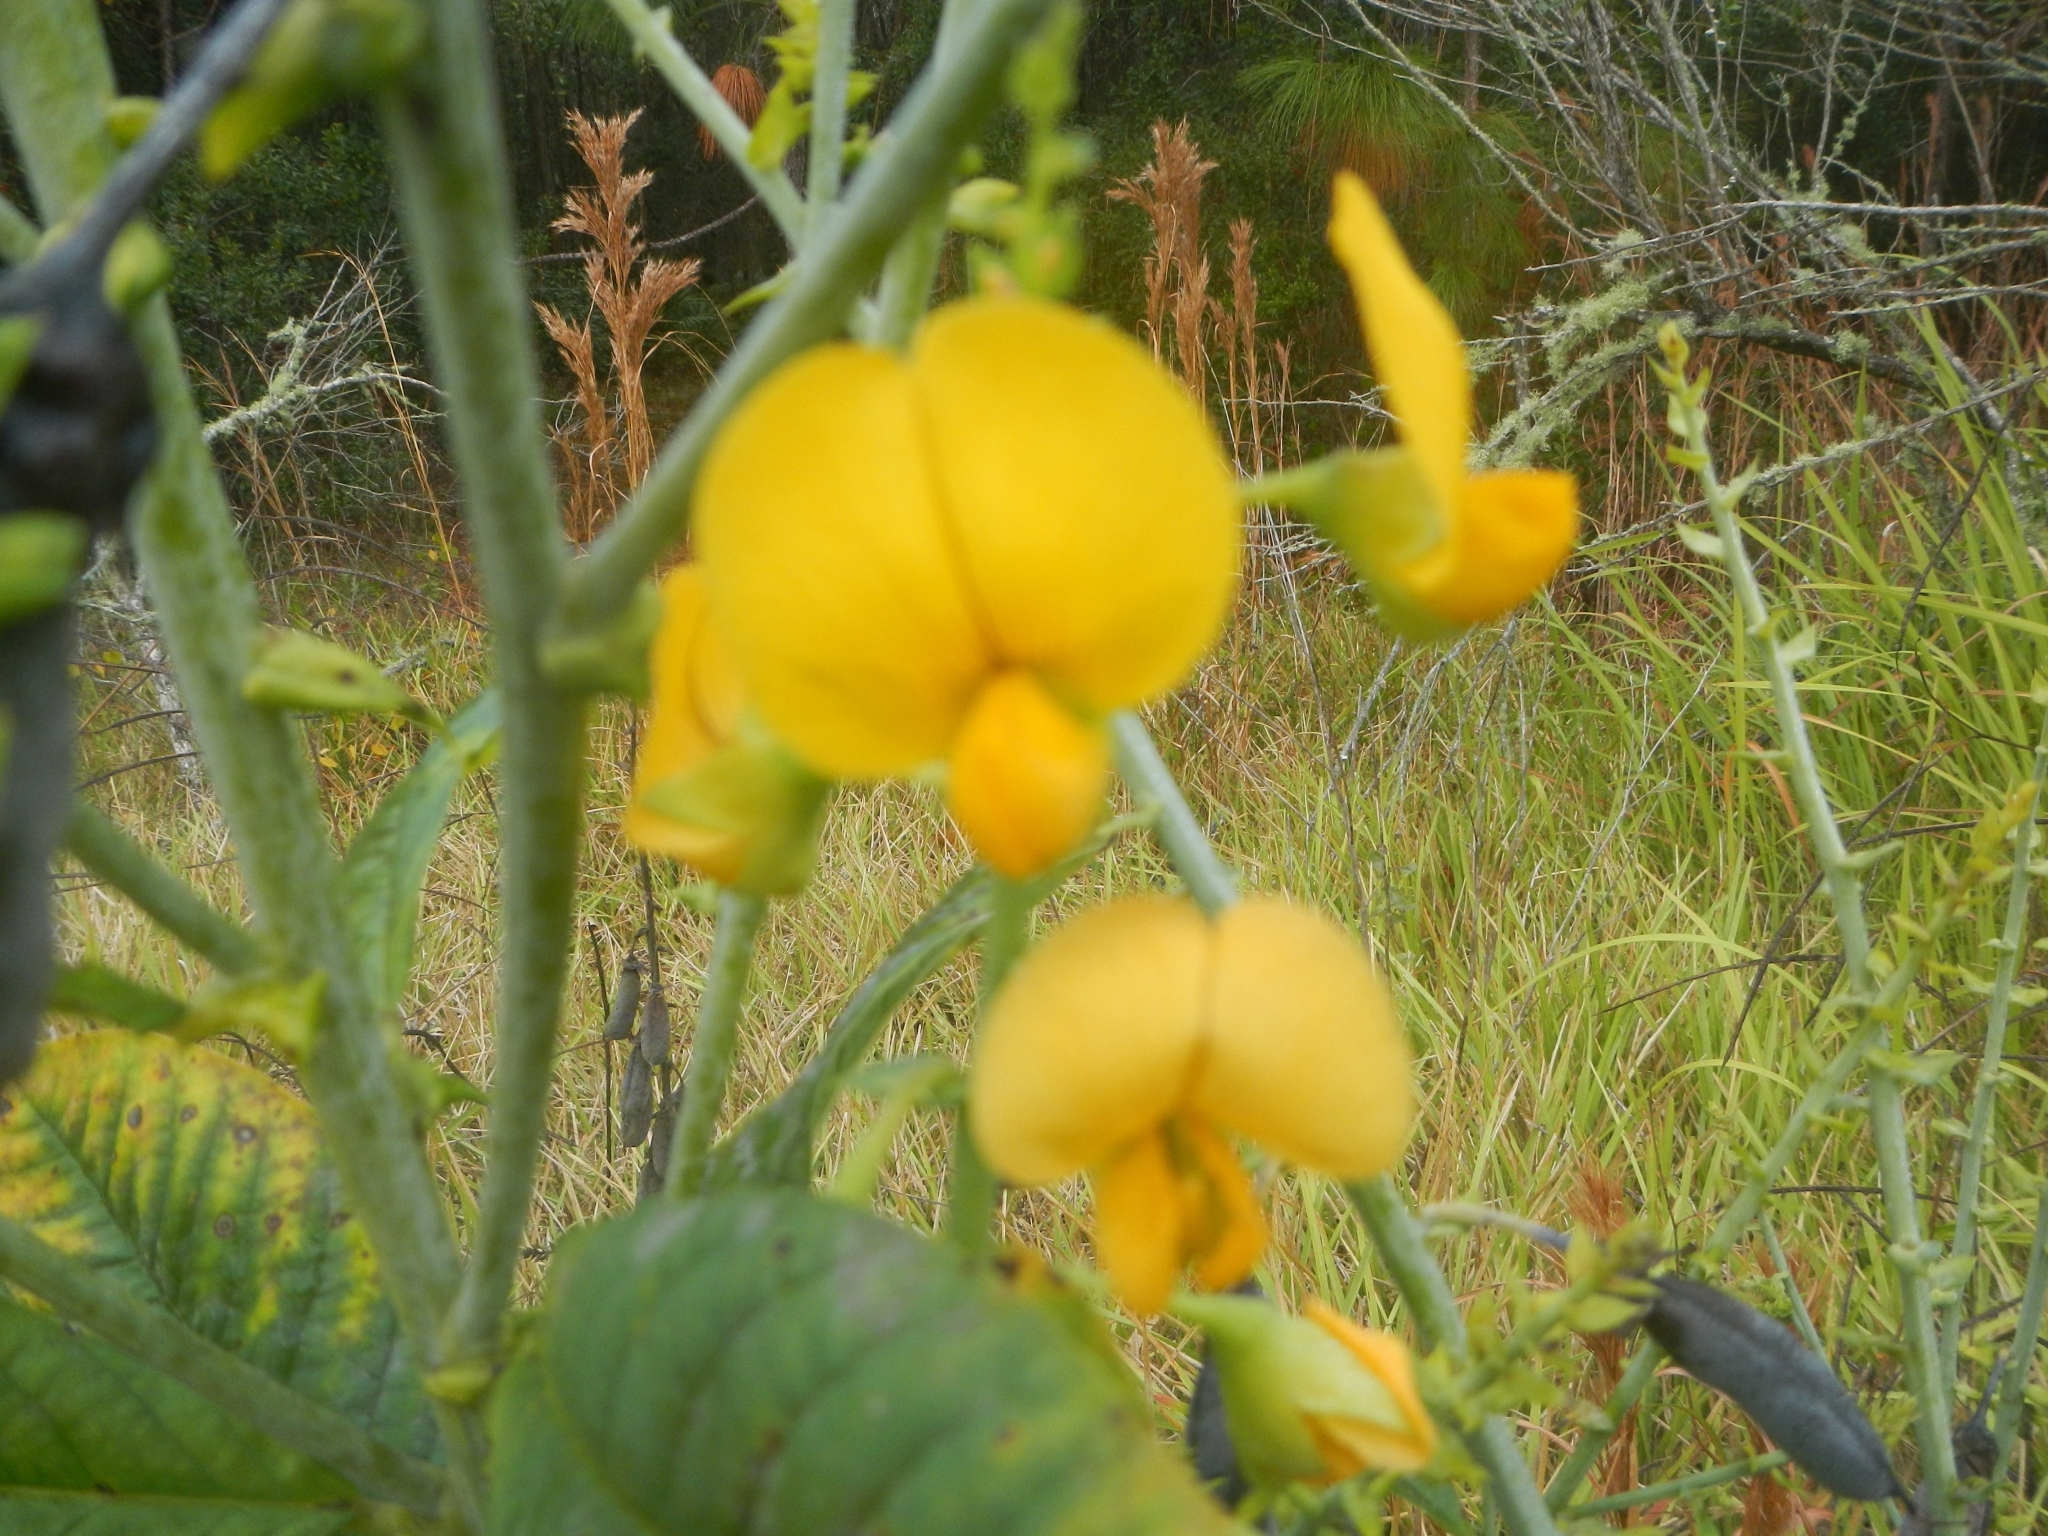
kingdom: Plantae
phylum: Tracheophyta
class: Magnoliopsida
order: Fabales
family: Fabaceae
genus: Crotalaria
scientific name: Crotalaria spectabilis
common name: Showy rattlebox
